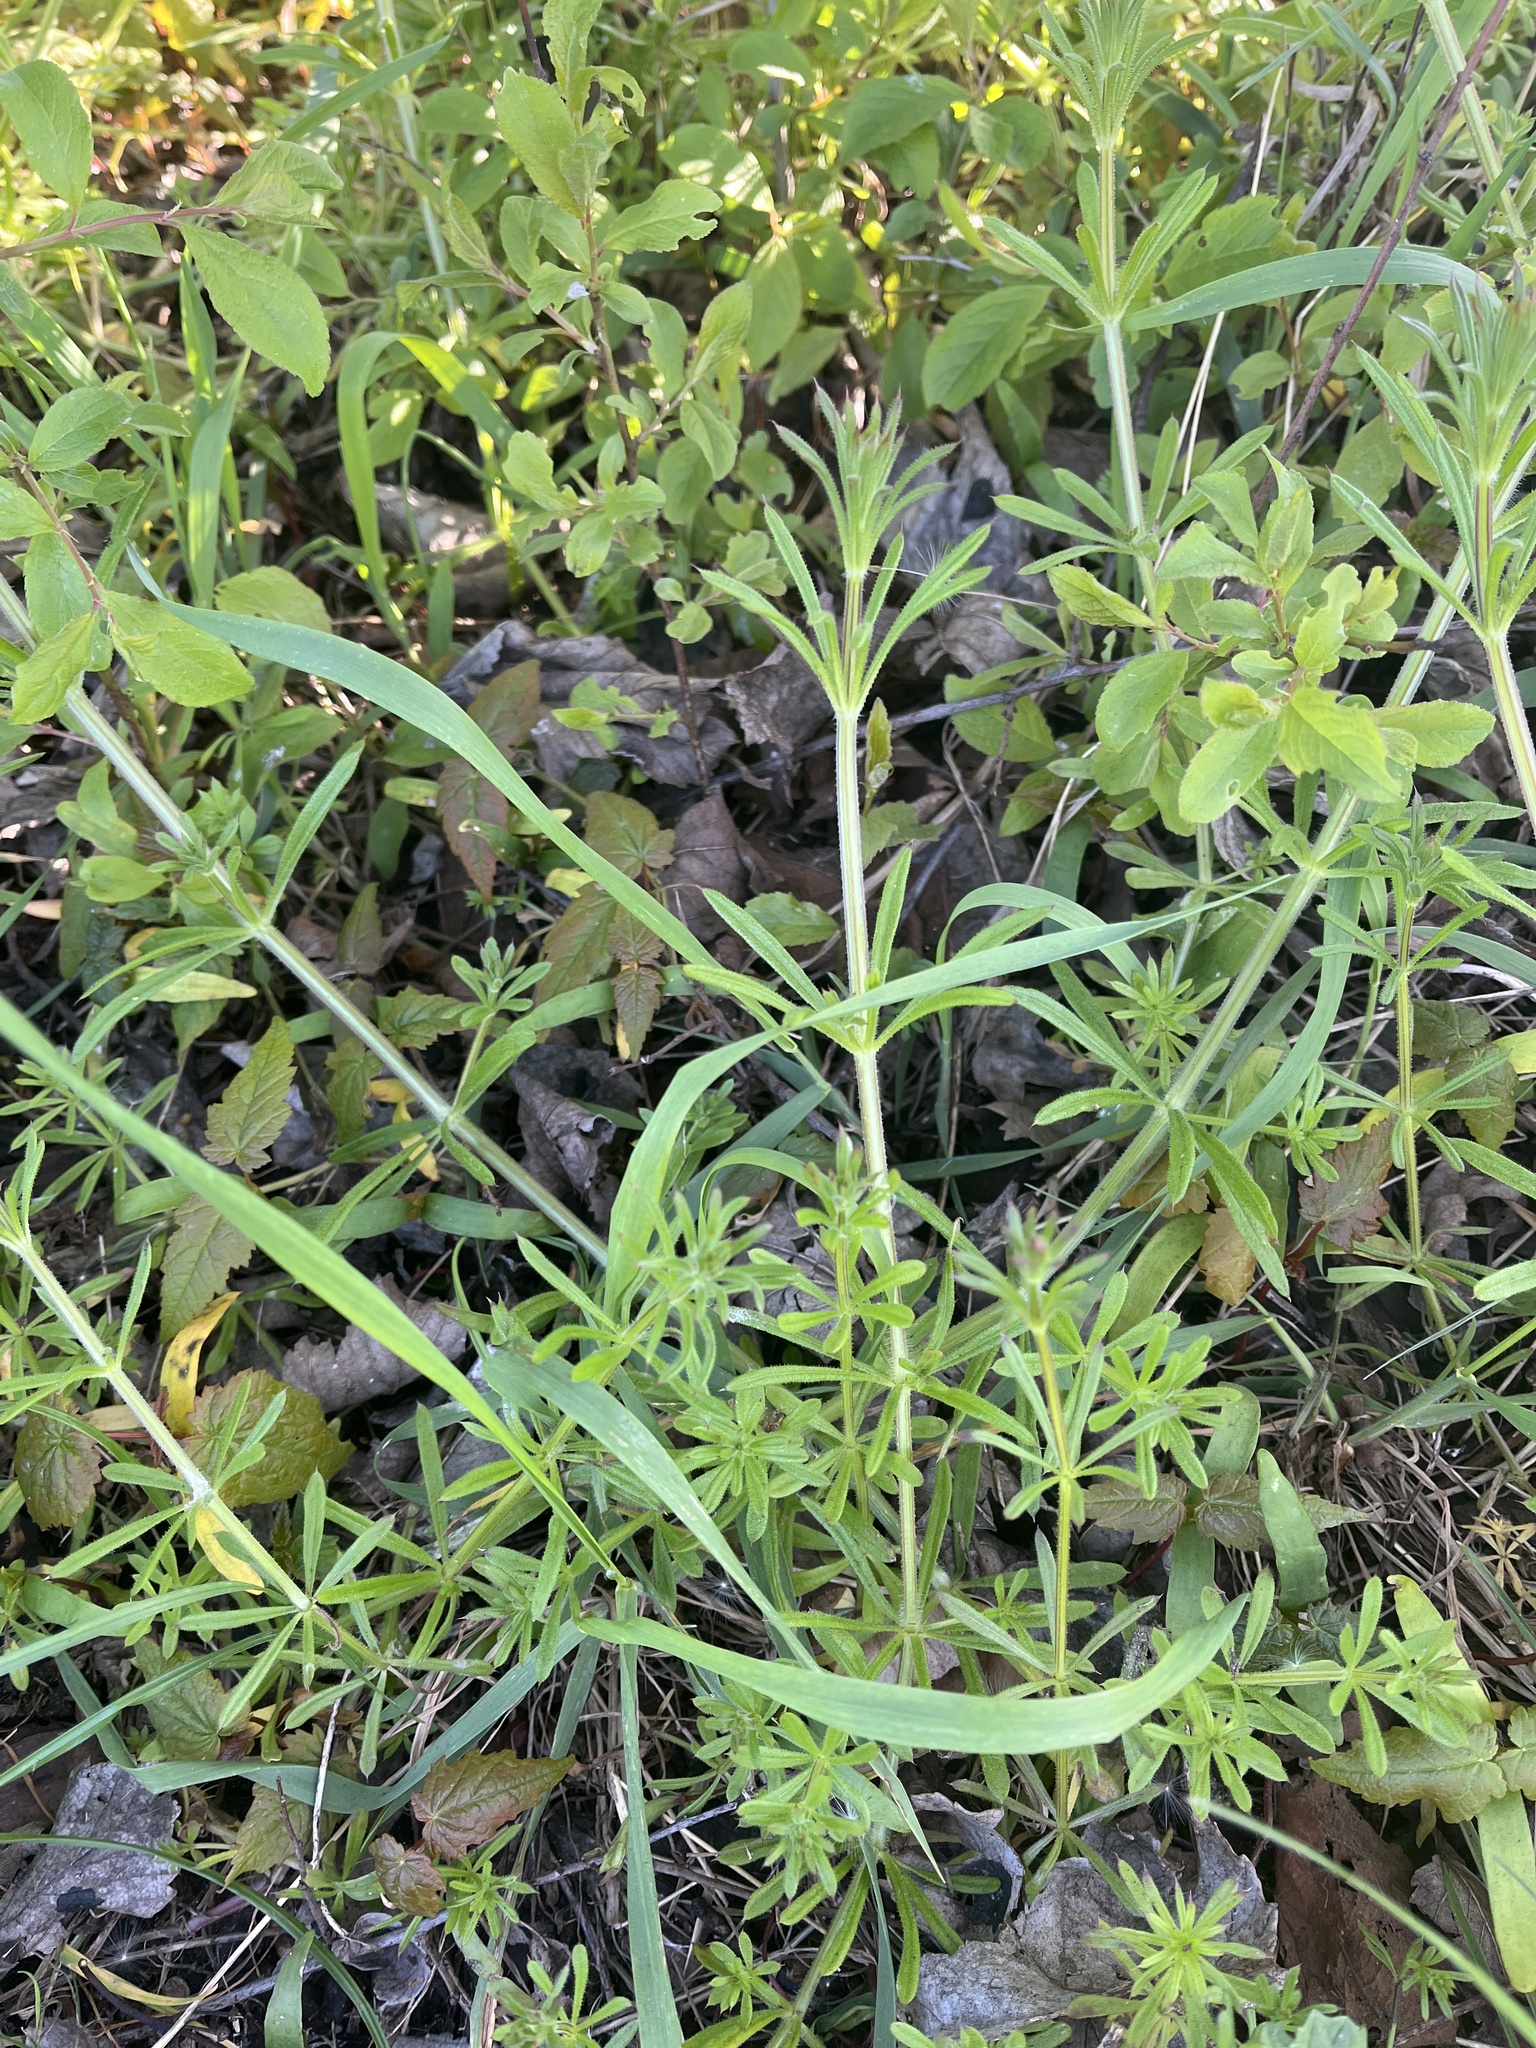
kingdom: Plantae
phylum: Tracheophyta
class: Magnoliopsida
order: Gentianales
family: Rubiaceae
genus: Galium
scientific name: Galium aparine
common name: Cleavers
